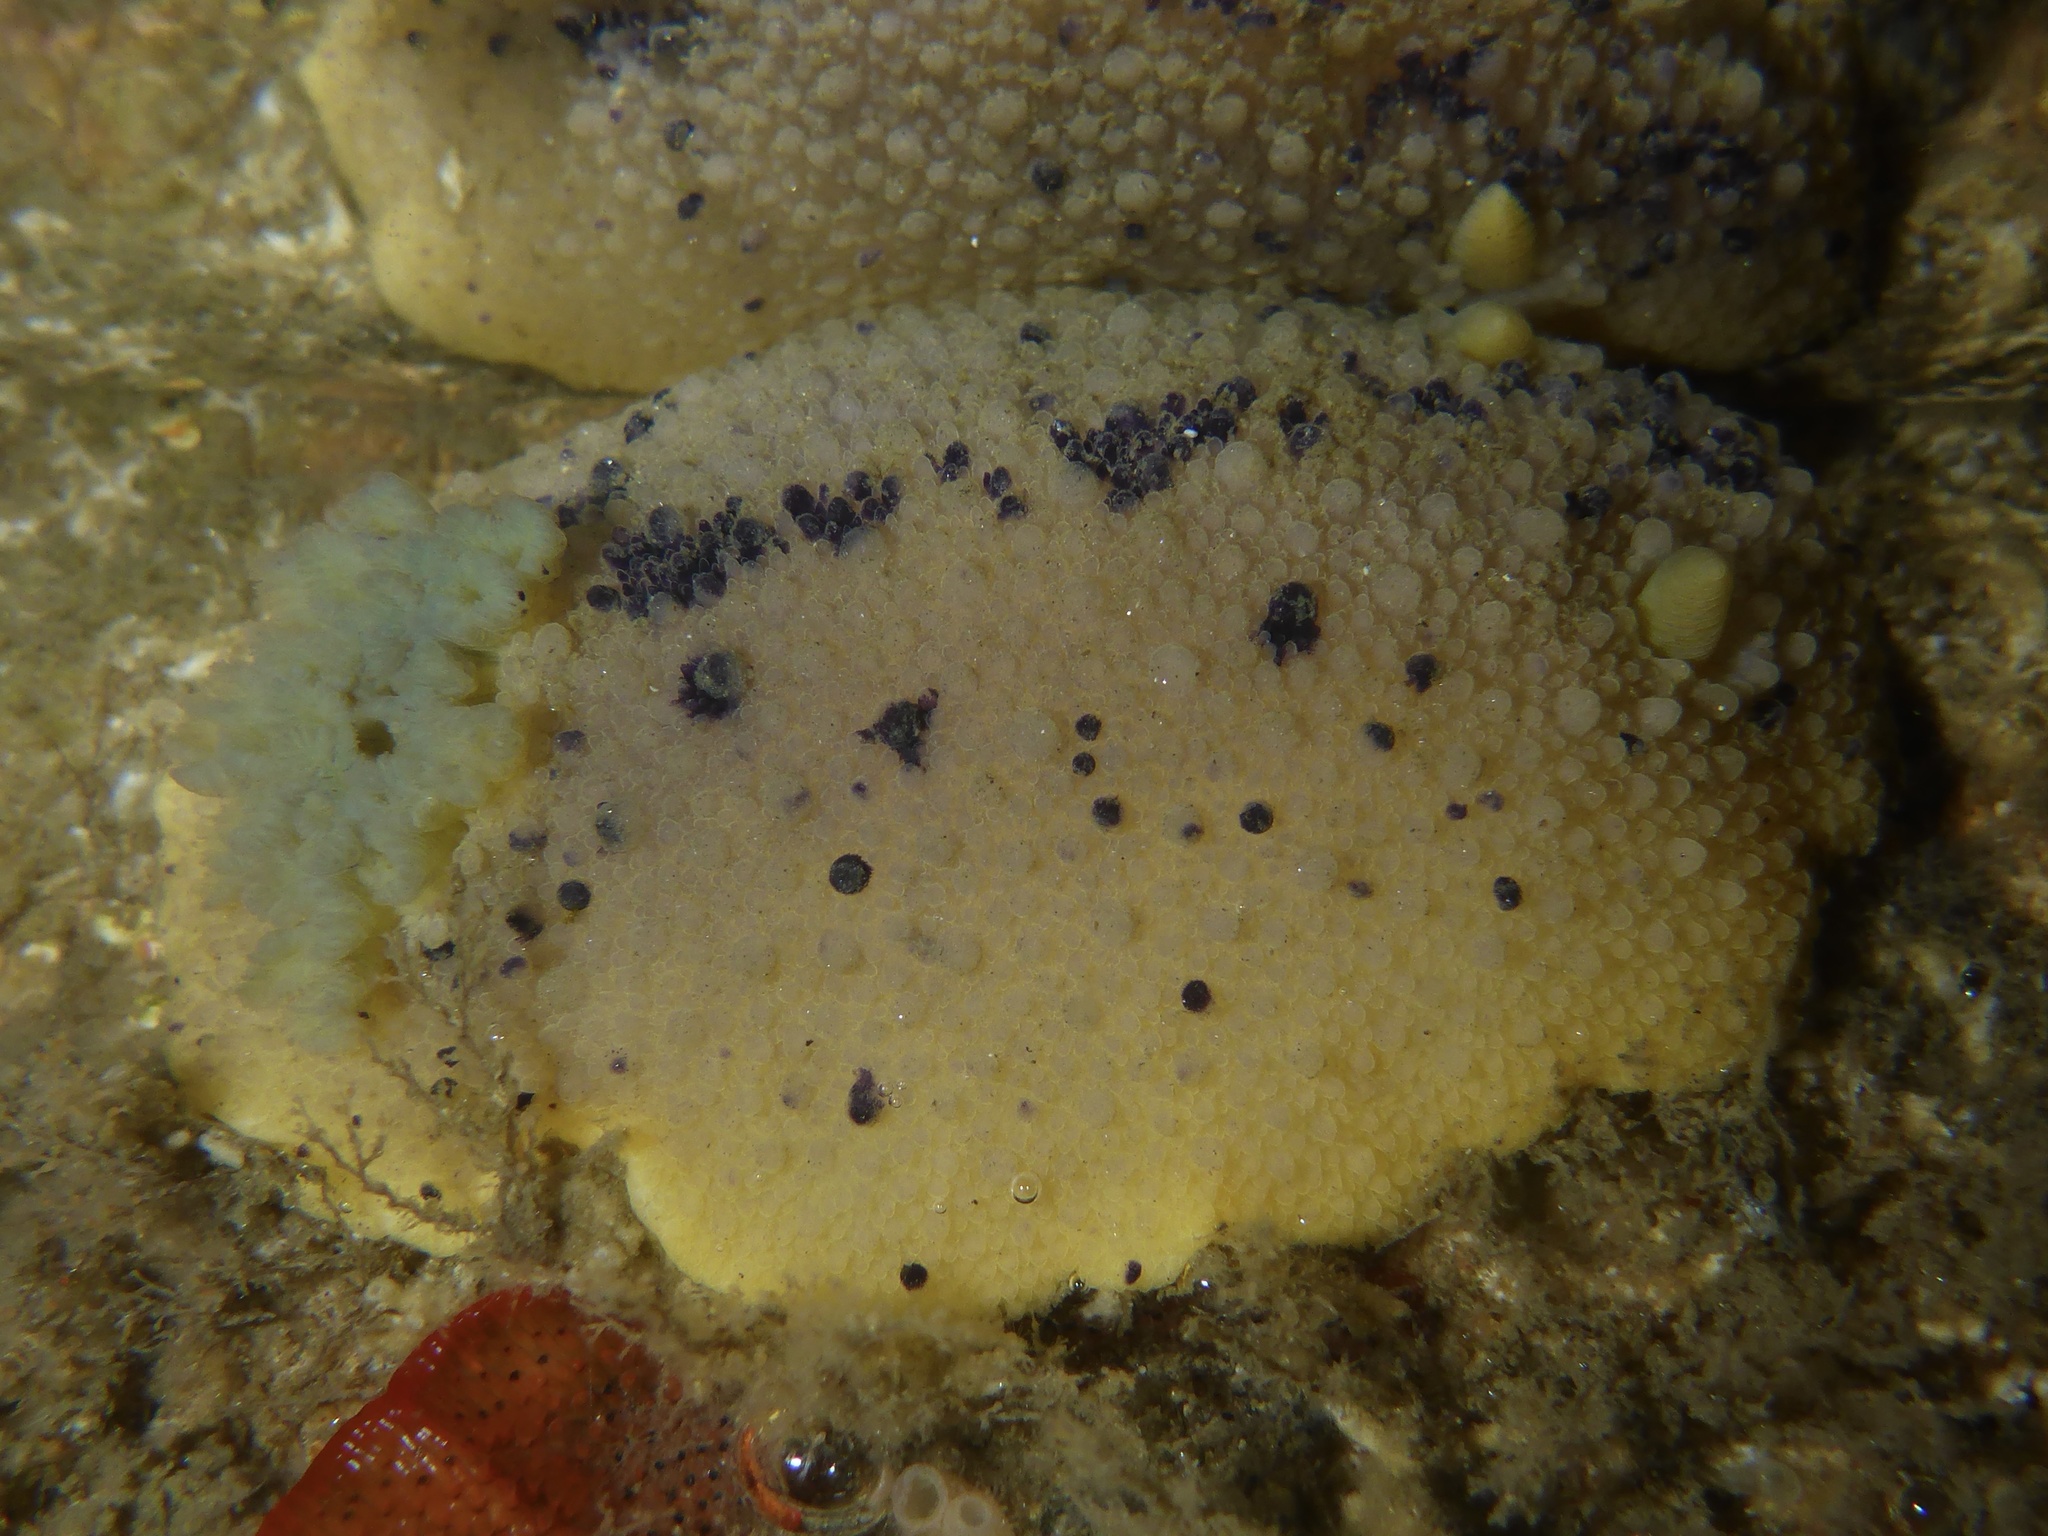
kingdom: Animalia
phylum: Mollusca
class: Gastropoda
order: Nudibranchia
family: Dorididae
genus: Doris
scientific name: Doris montereyensis
